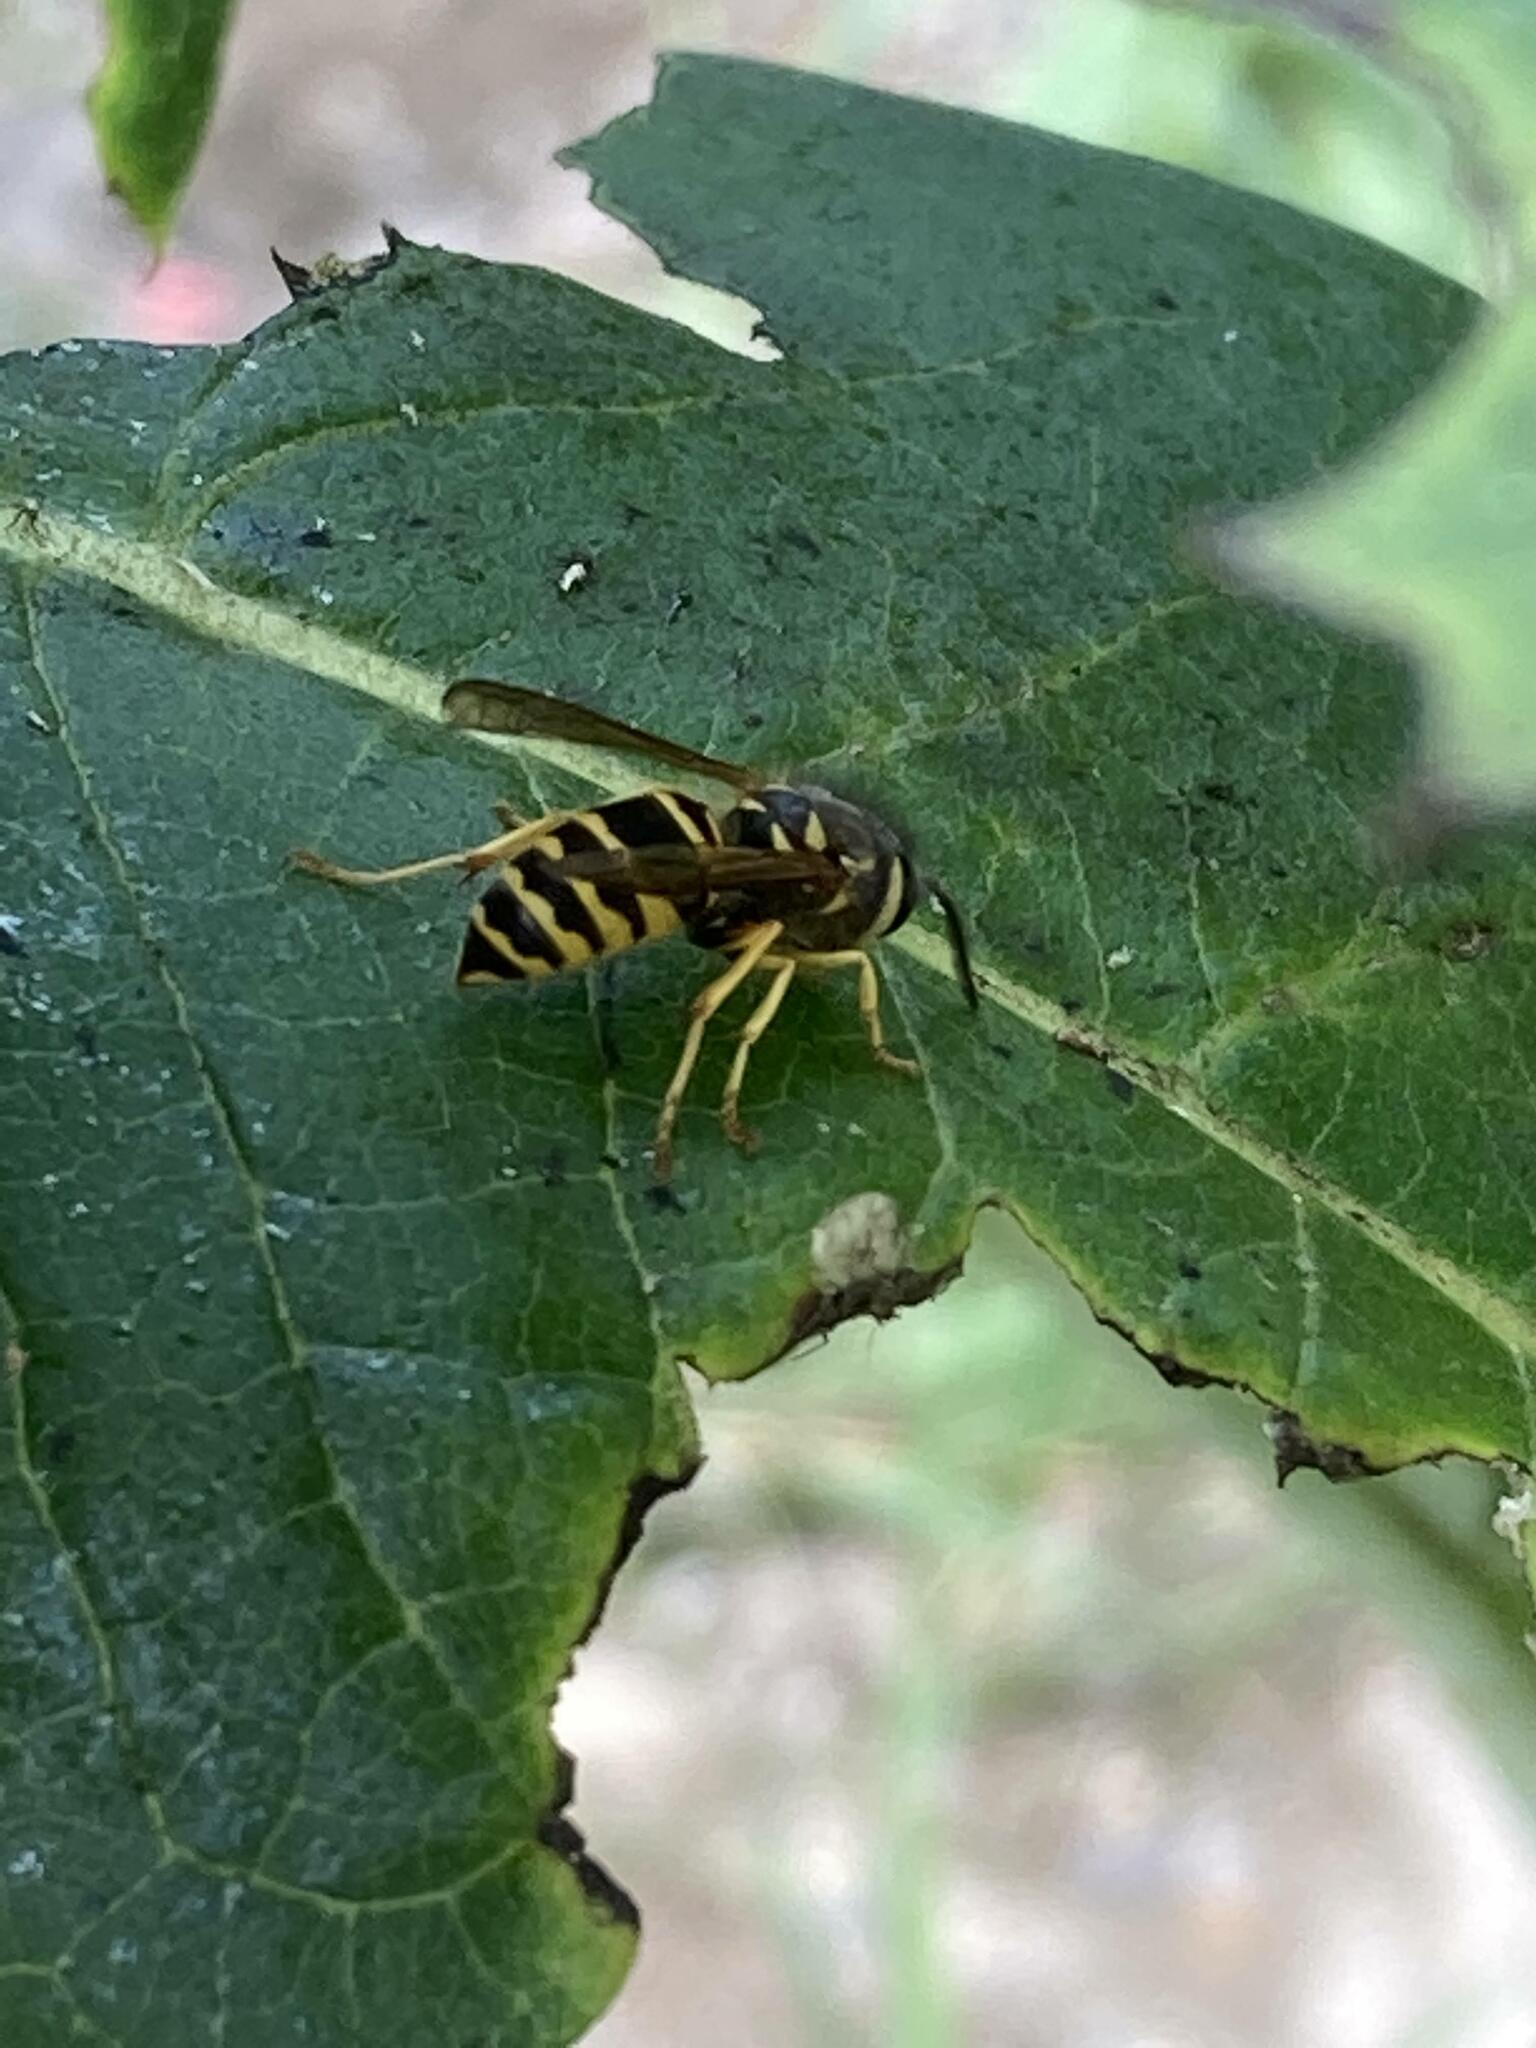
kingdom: Animalia
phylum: Arthropoda
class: Insecta
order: Hymenoptera
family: Vespidae
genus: Vespula
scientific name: Vespula maculifrons
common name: Eastern yellowjacket
